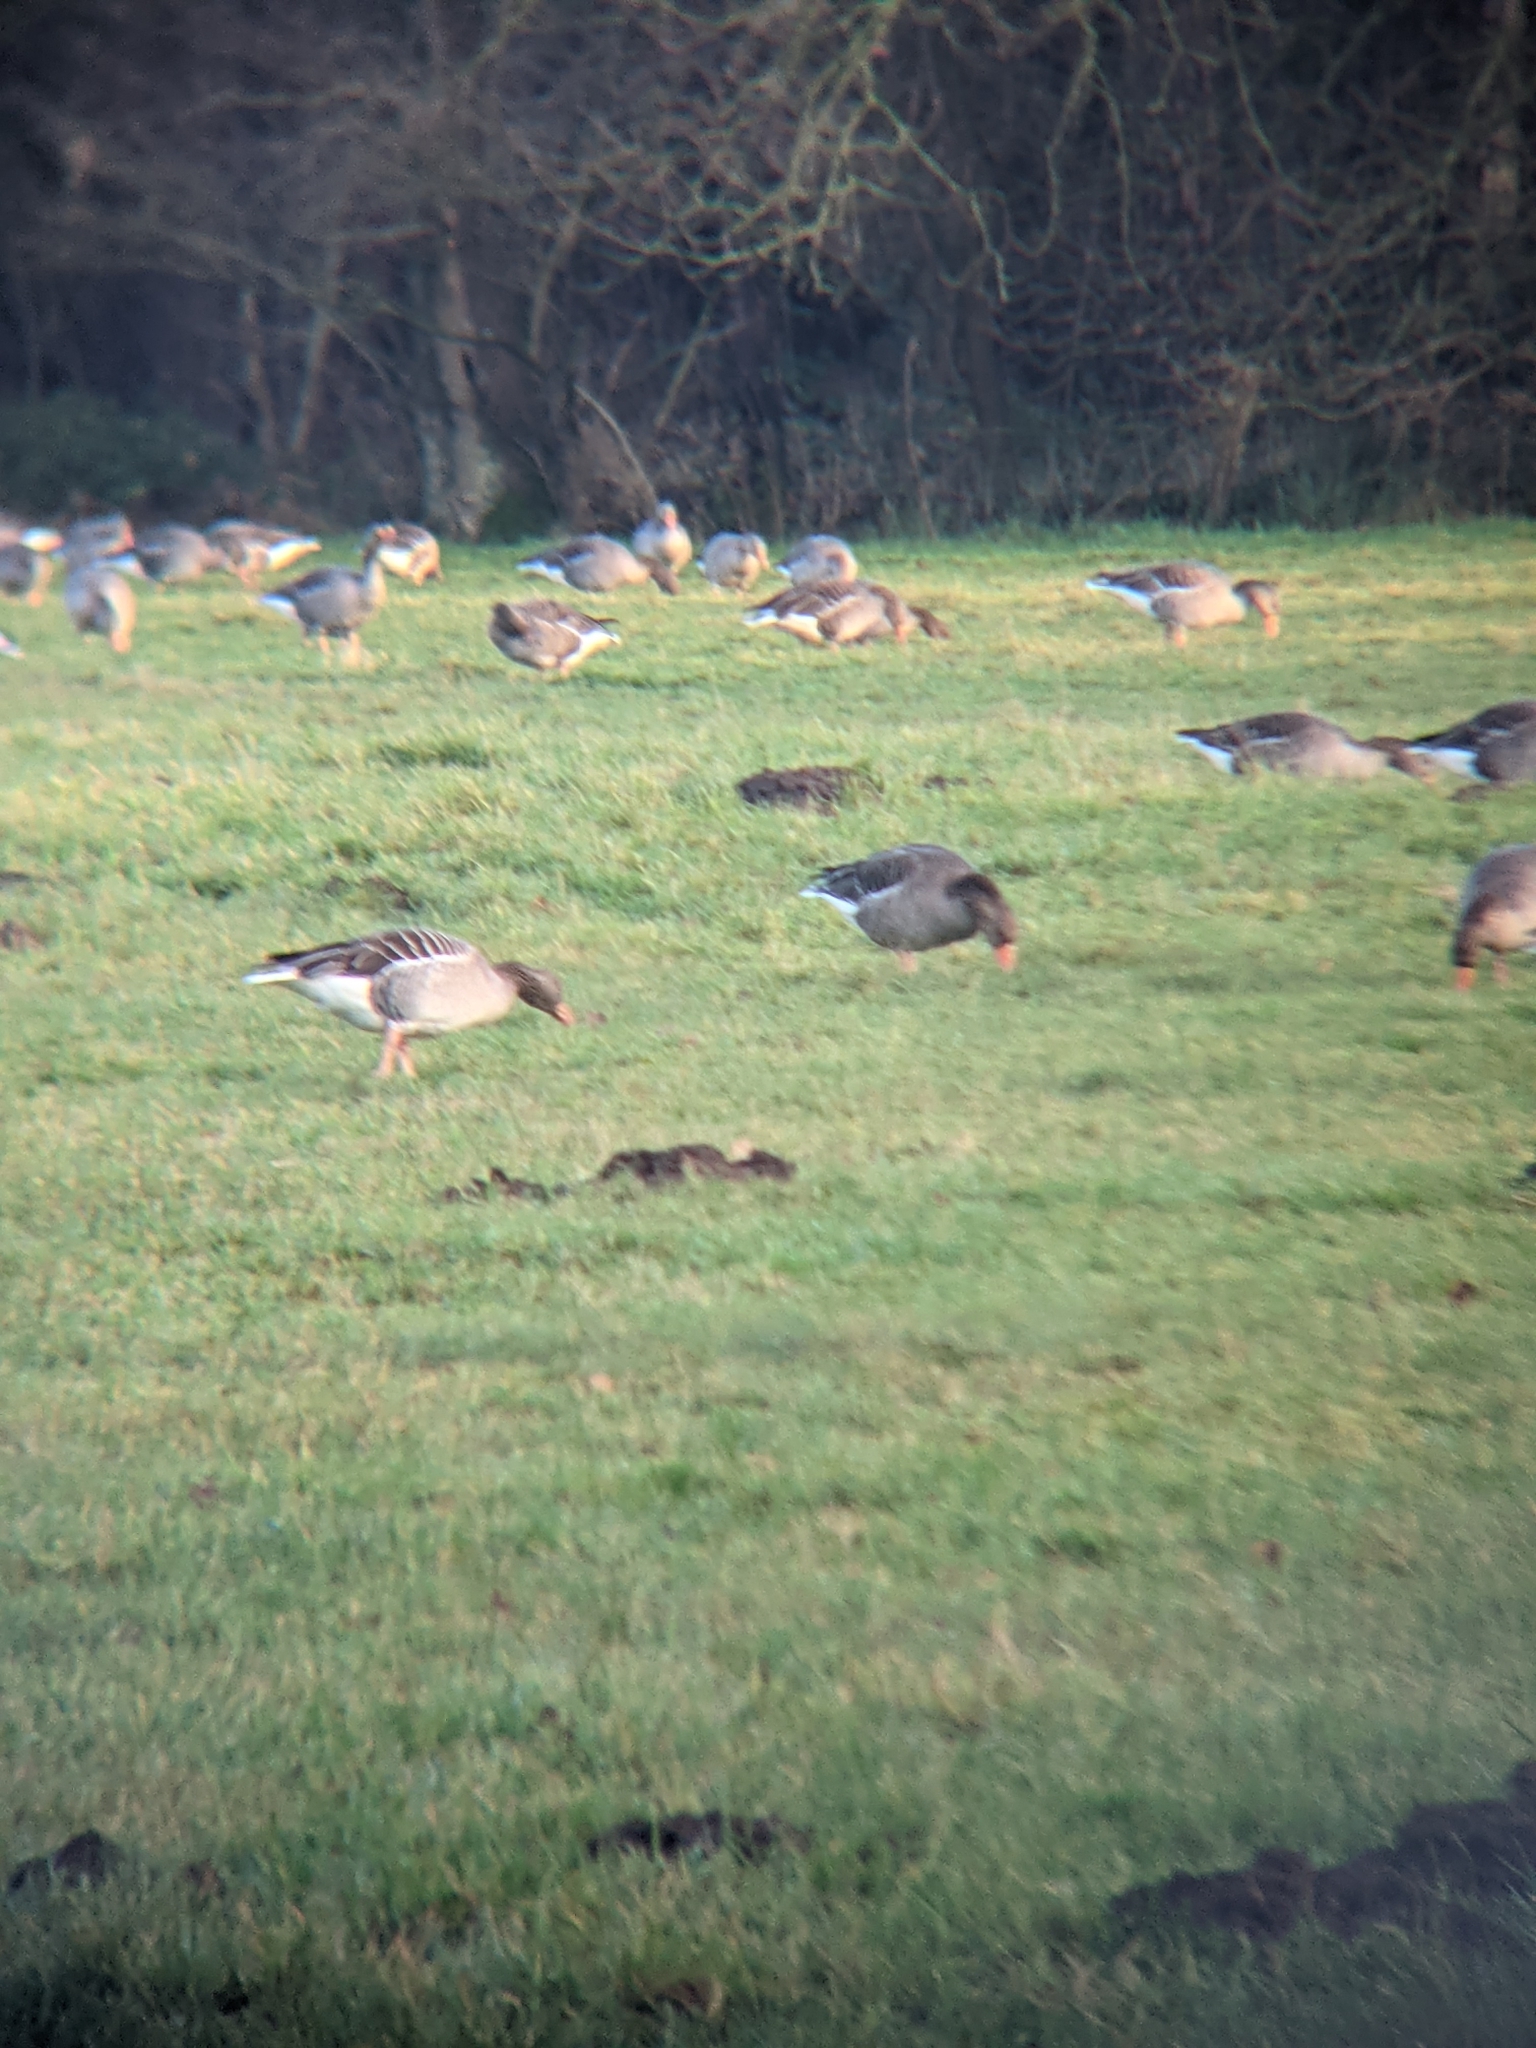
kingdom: Animalia
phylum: Chordata
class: Aves
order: Anseriformes
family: Anatidae
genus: Anser
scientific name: Anser anser
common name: Greylag goose
